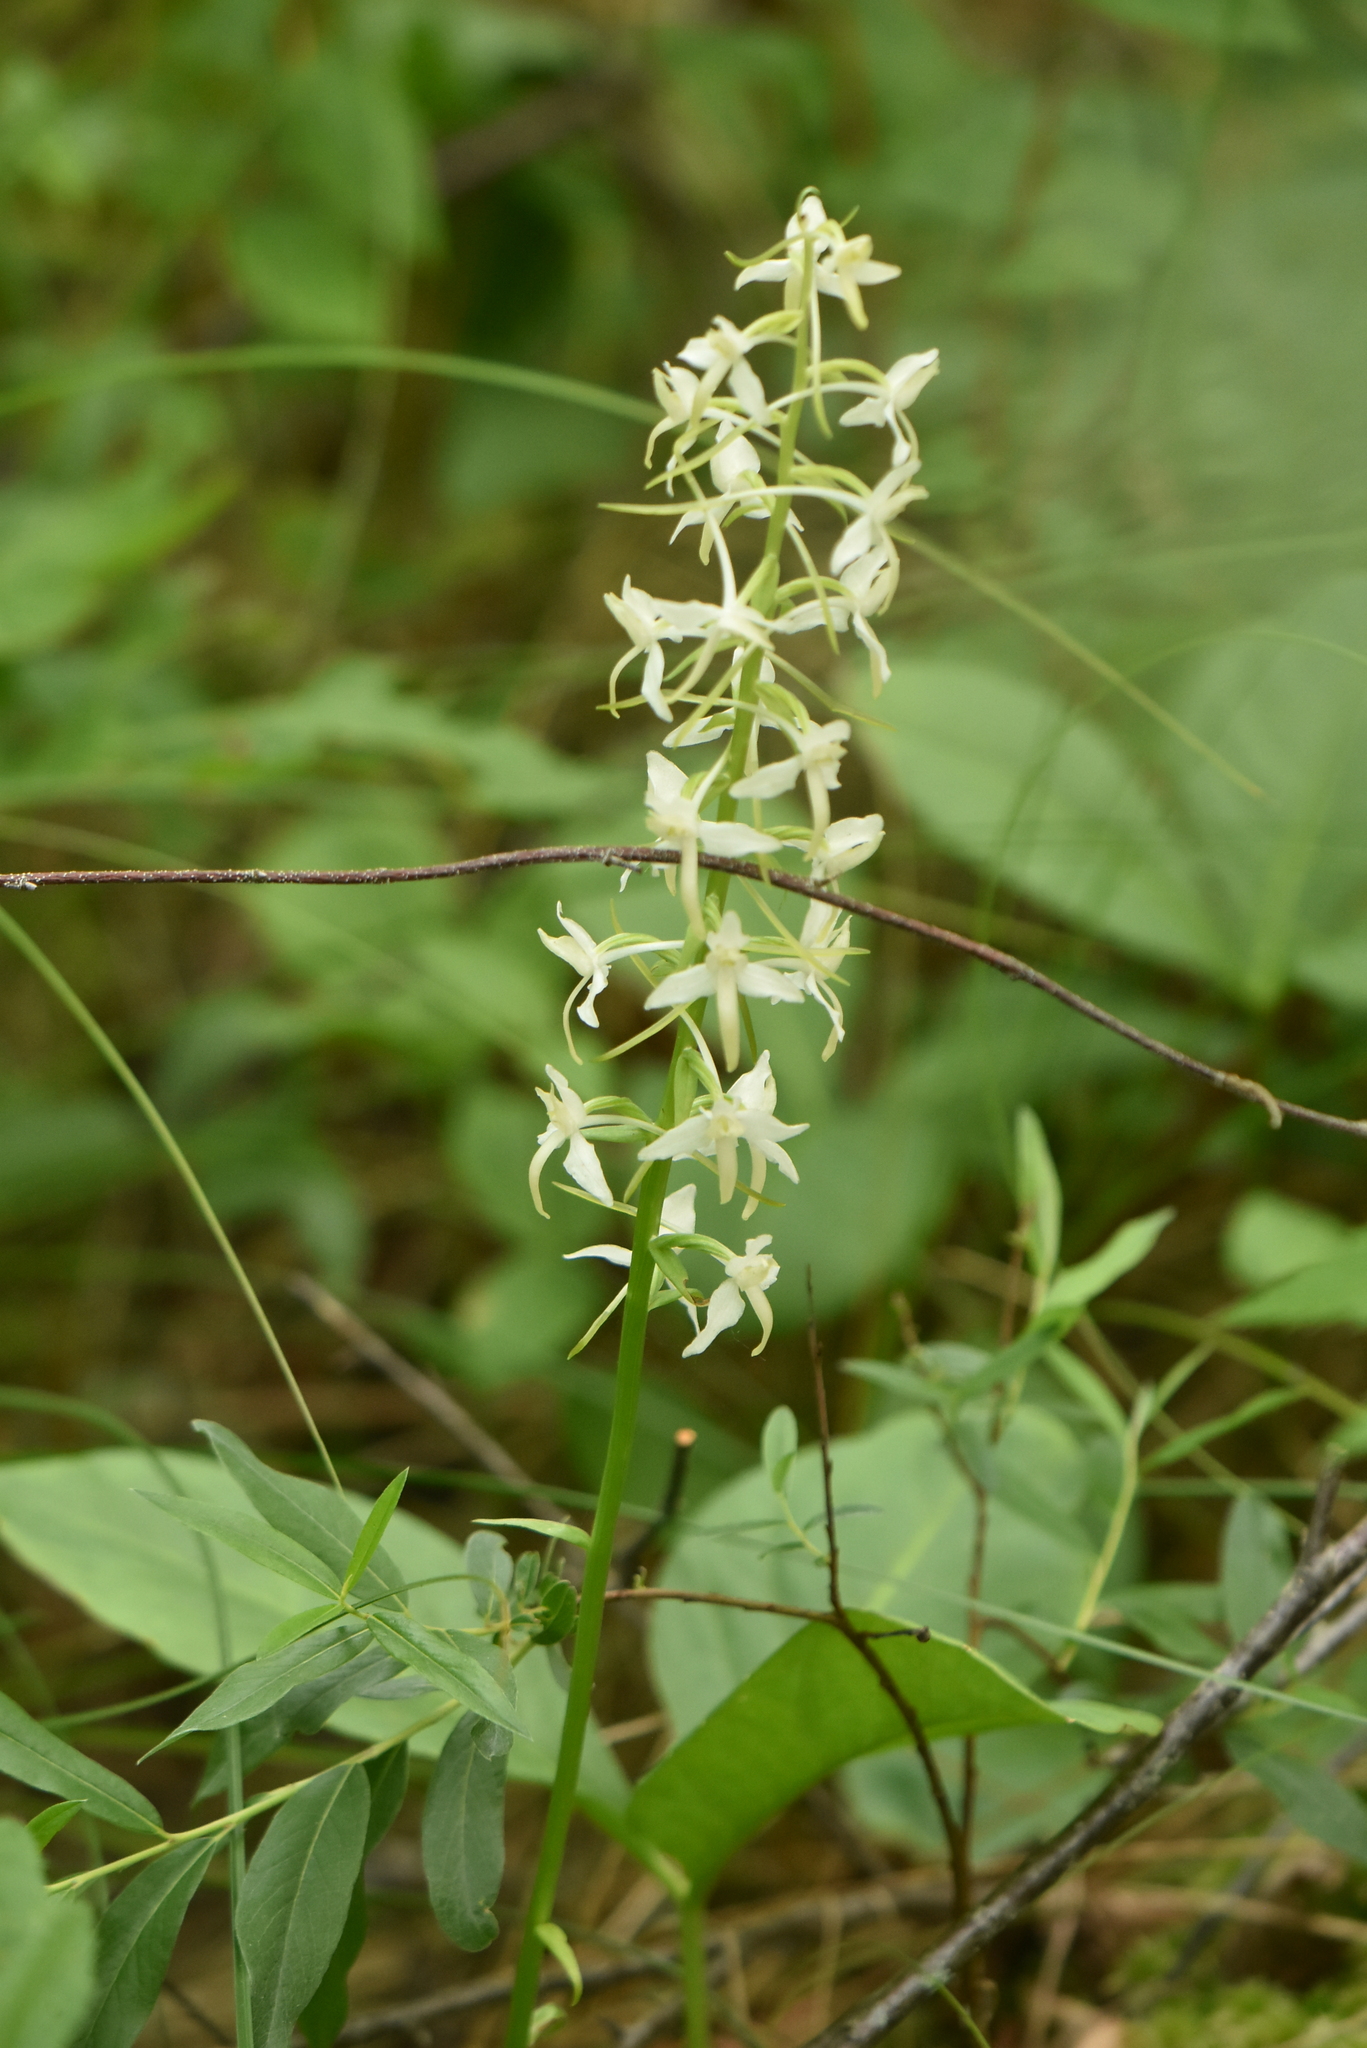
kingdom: Plantae
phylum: Tracheophyta
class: Liliopsida
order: Asparagales
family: Orchidaceae
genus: Platanthera
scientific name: Platanthera bifolia
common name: Lesser butterfly-orchid
